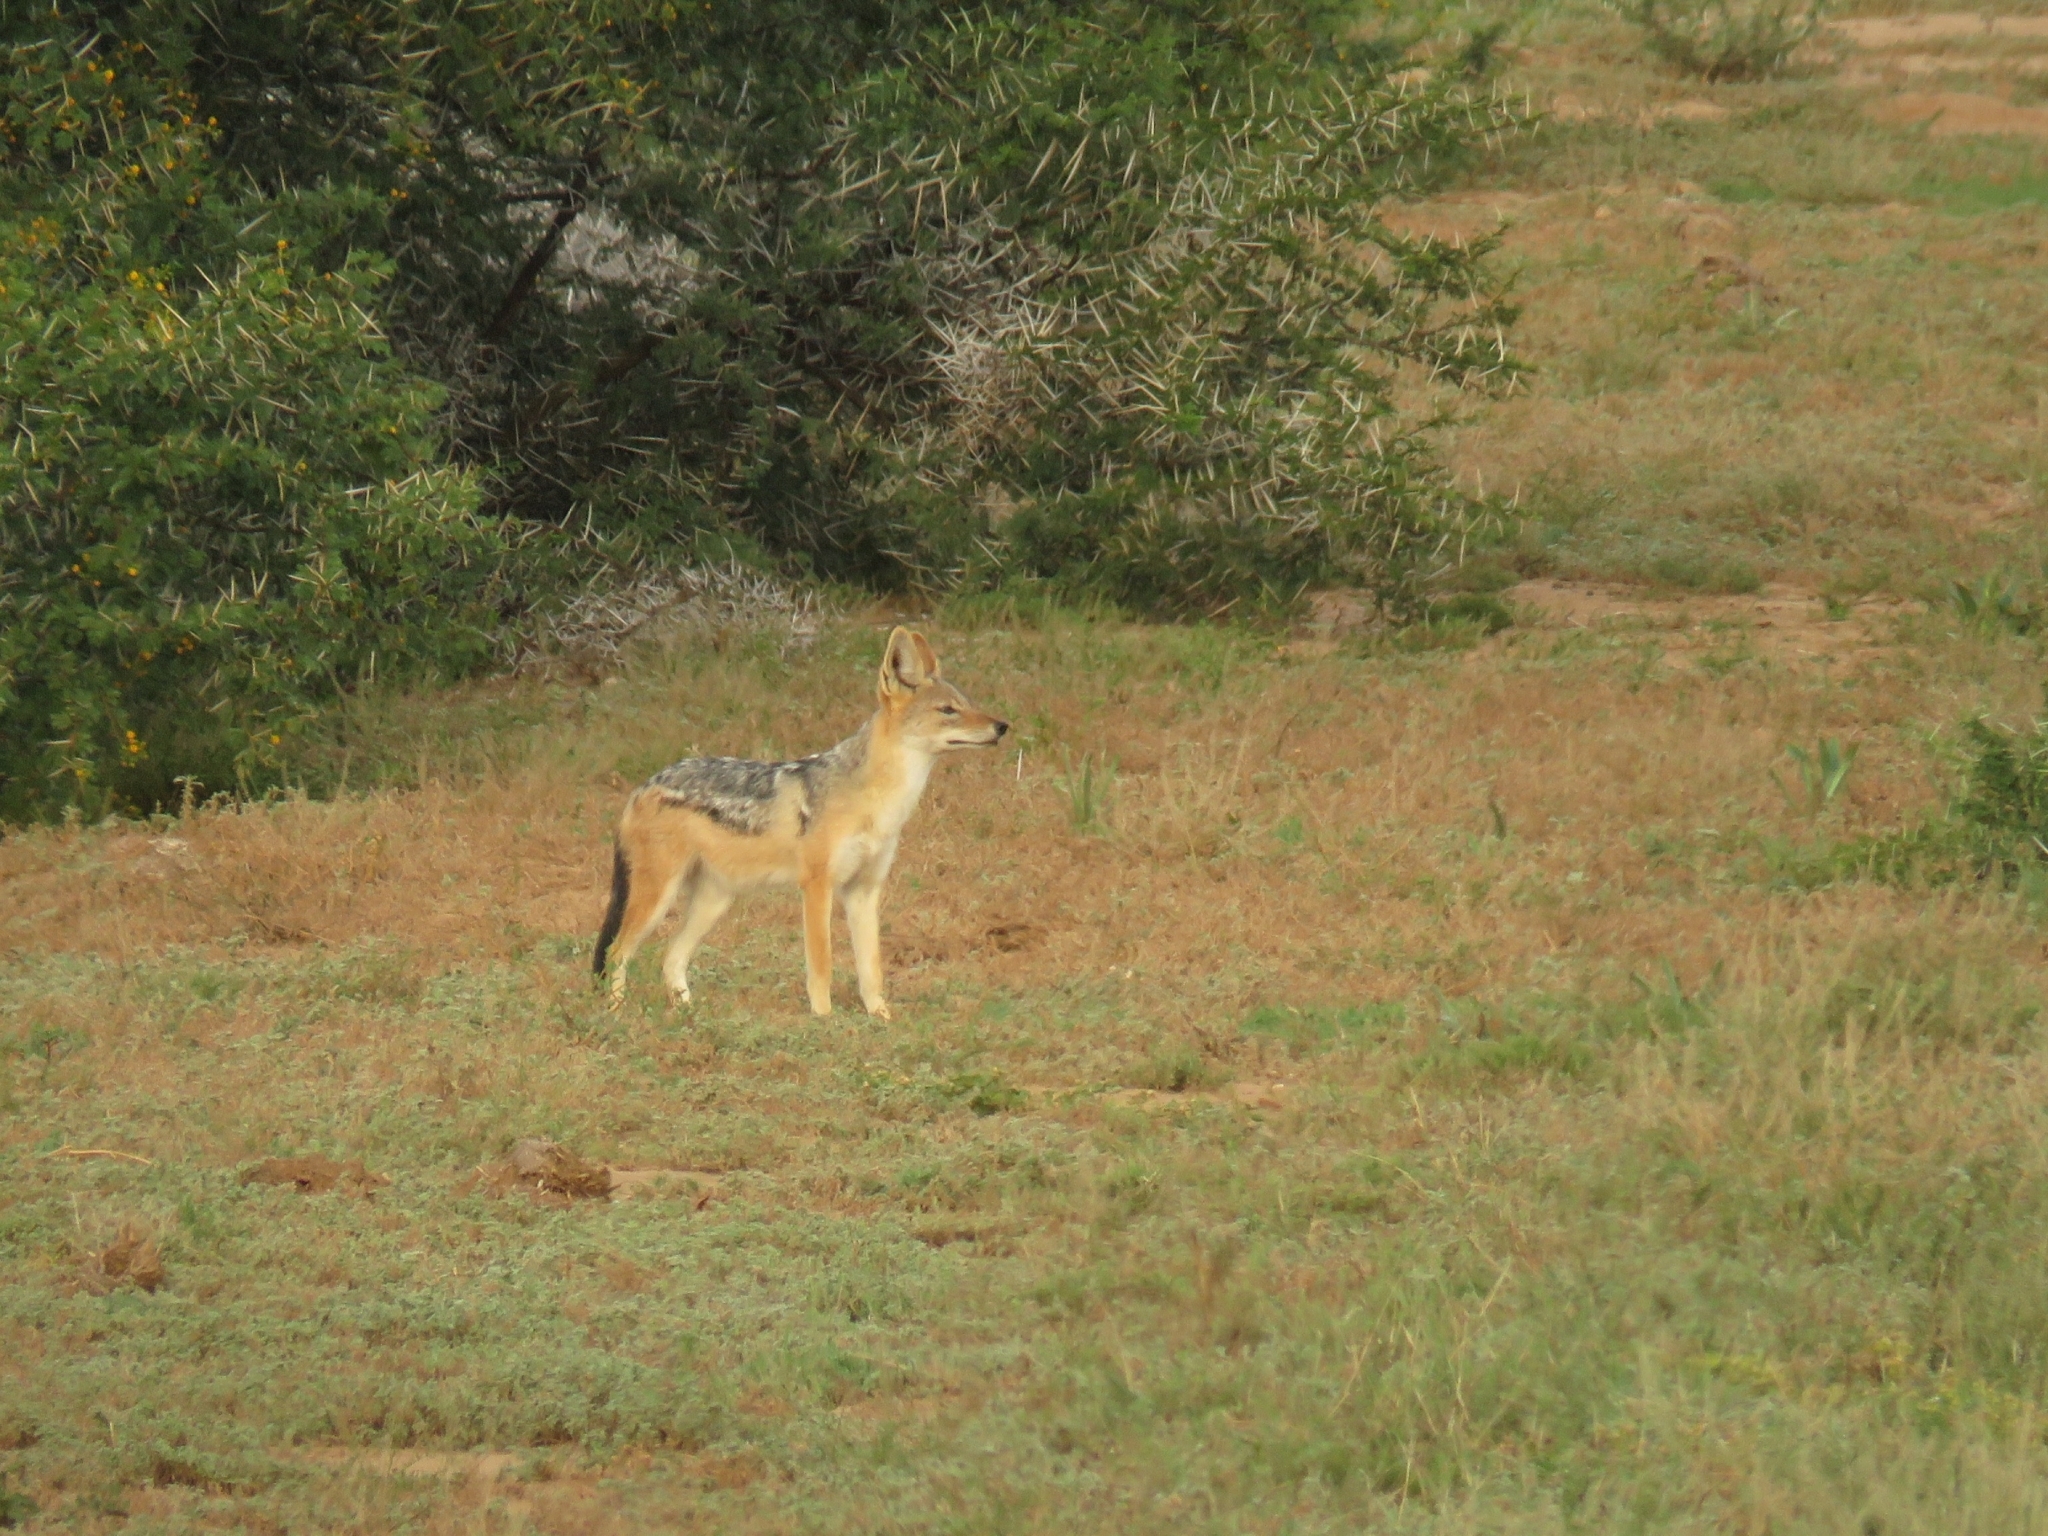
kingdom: Animalia
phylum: Chordata
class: Mammalia
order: Carnivora
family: Canidae
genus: Lupulella
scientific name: Lupulella
